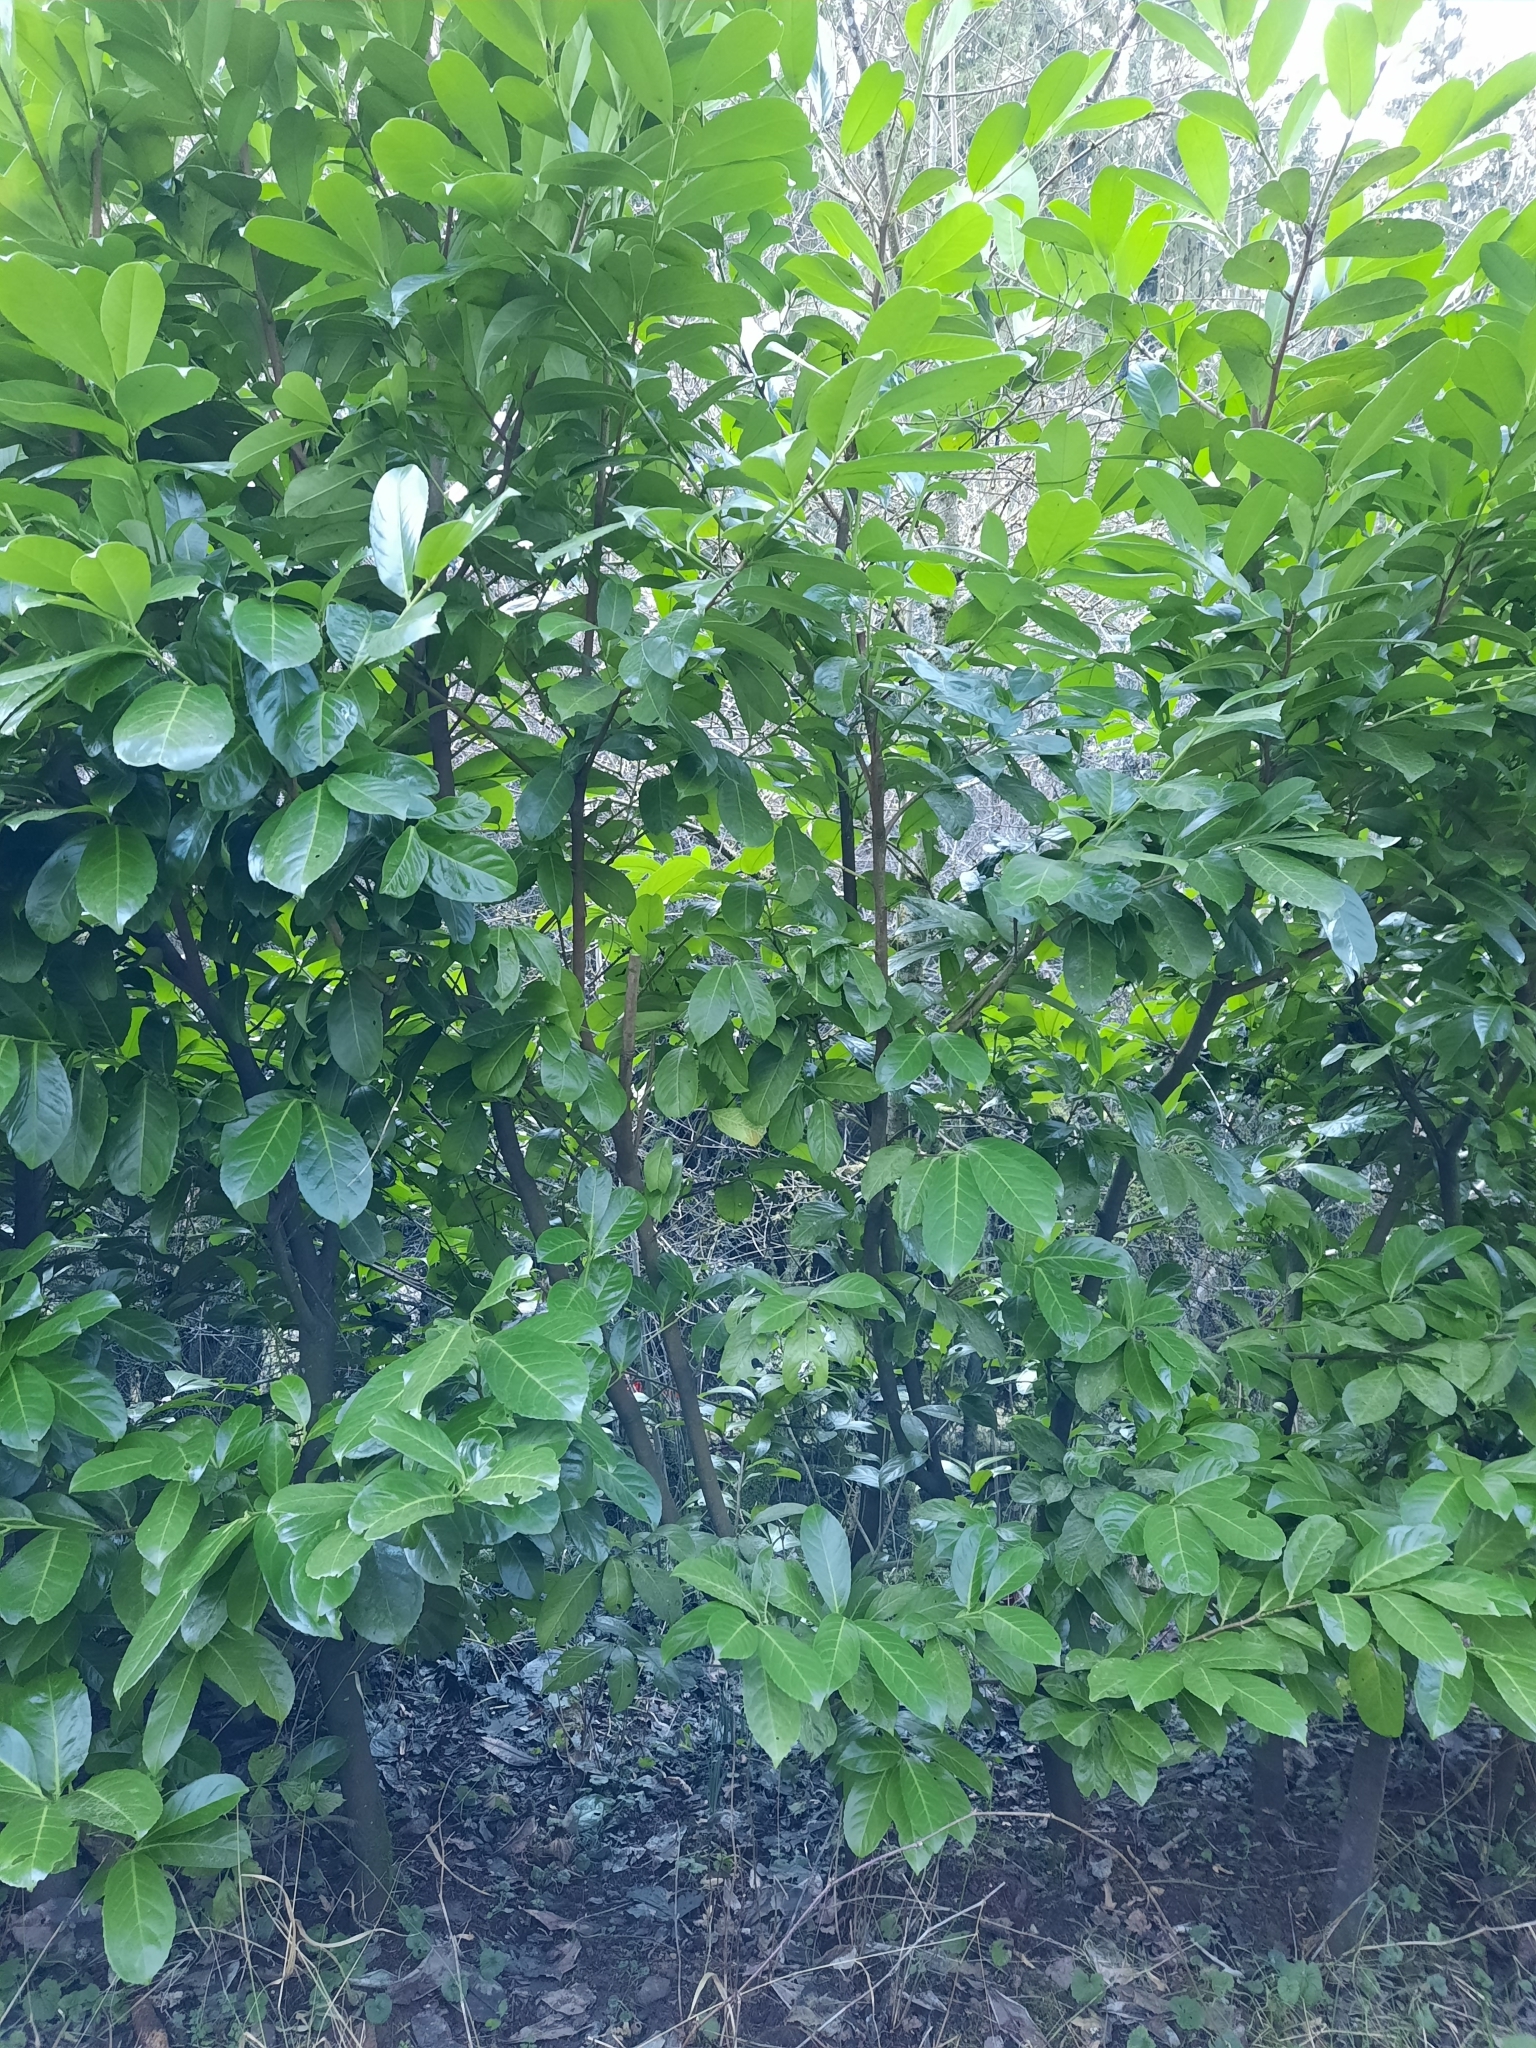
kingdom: Plantae
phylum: Tracheophyta
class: Magnoliopsida
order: Rosales
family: Rosaceae
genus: Prunus
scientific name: Prunus laurocerasus
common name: Cherry laurel
